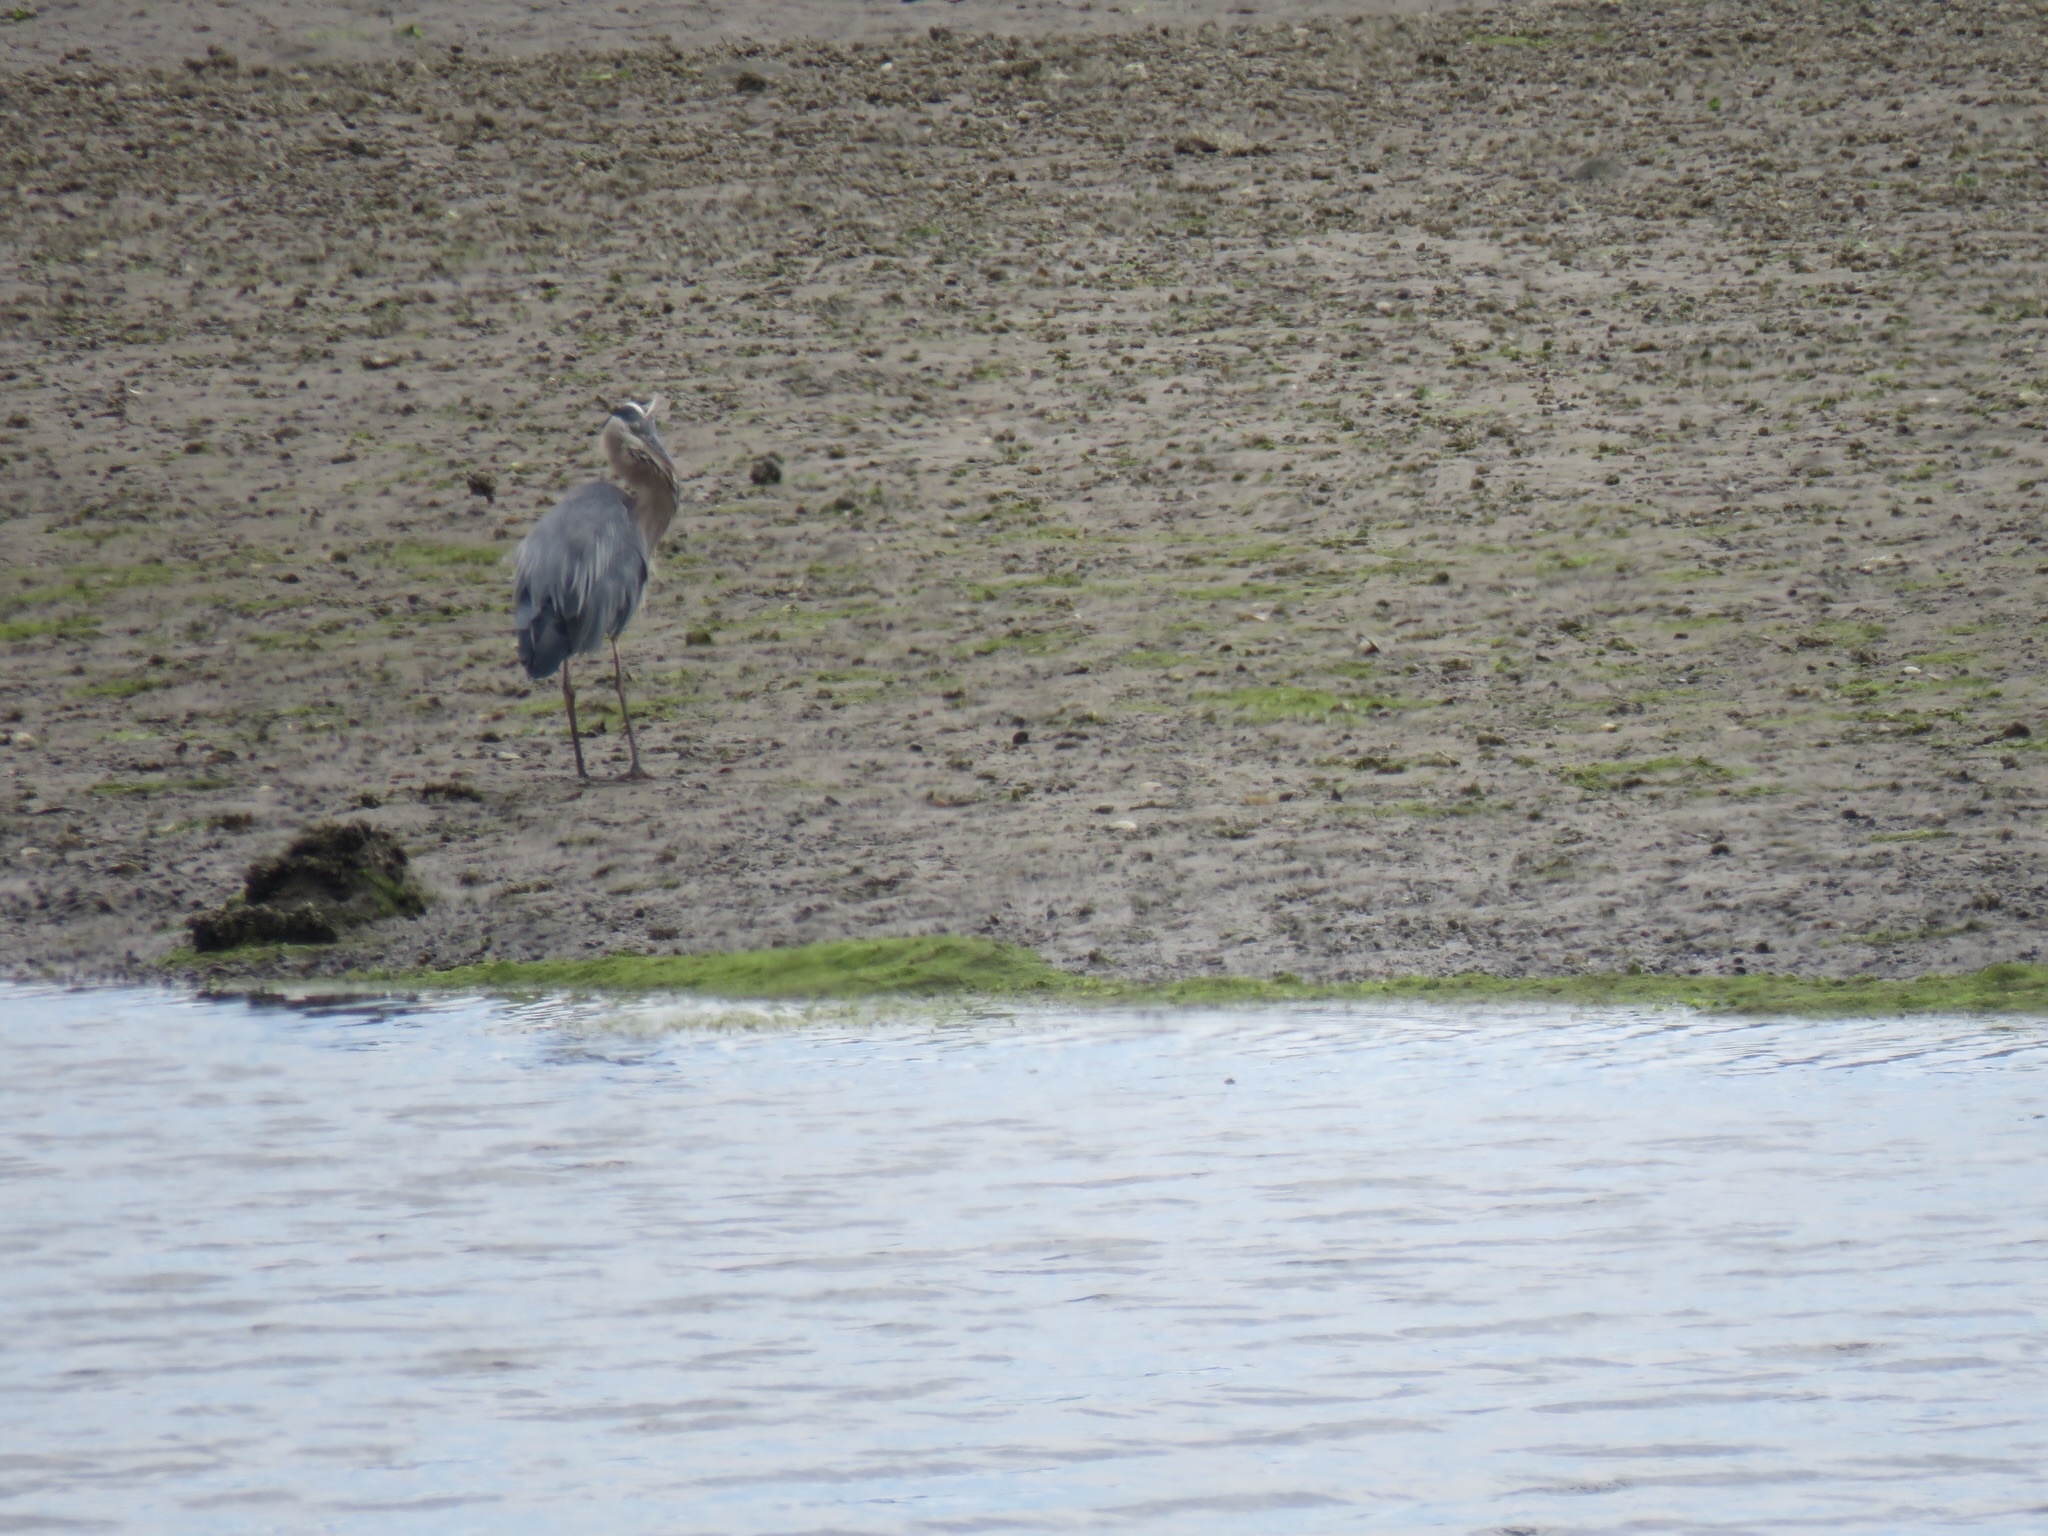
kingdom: Animalia
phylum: Chordata
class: Aves
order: Pelecaniformes
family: Ardeidae
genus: Ardea
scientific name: Ardea herodias
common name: Great blue heron
